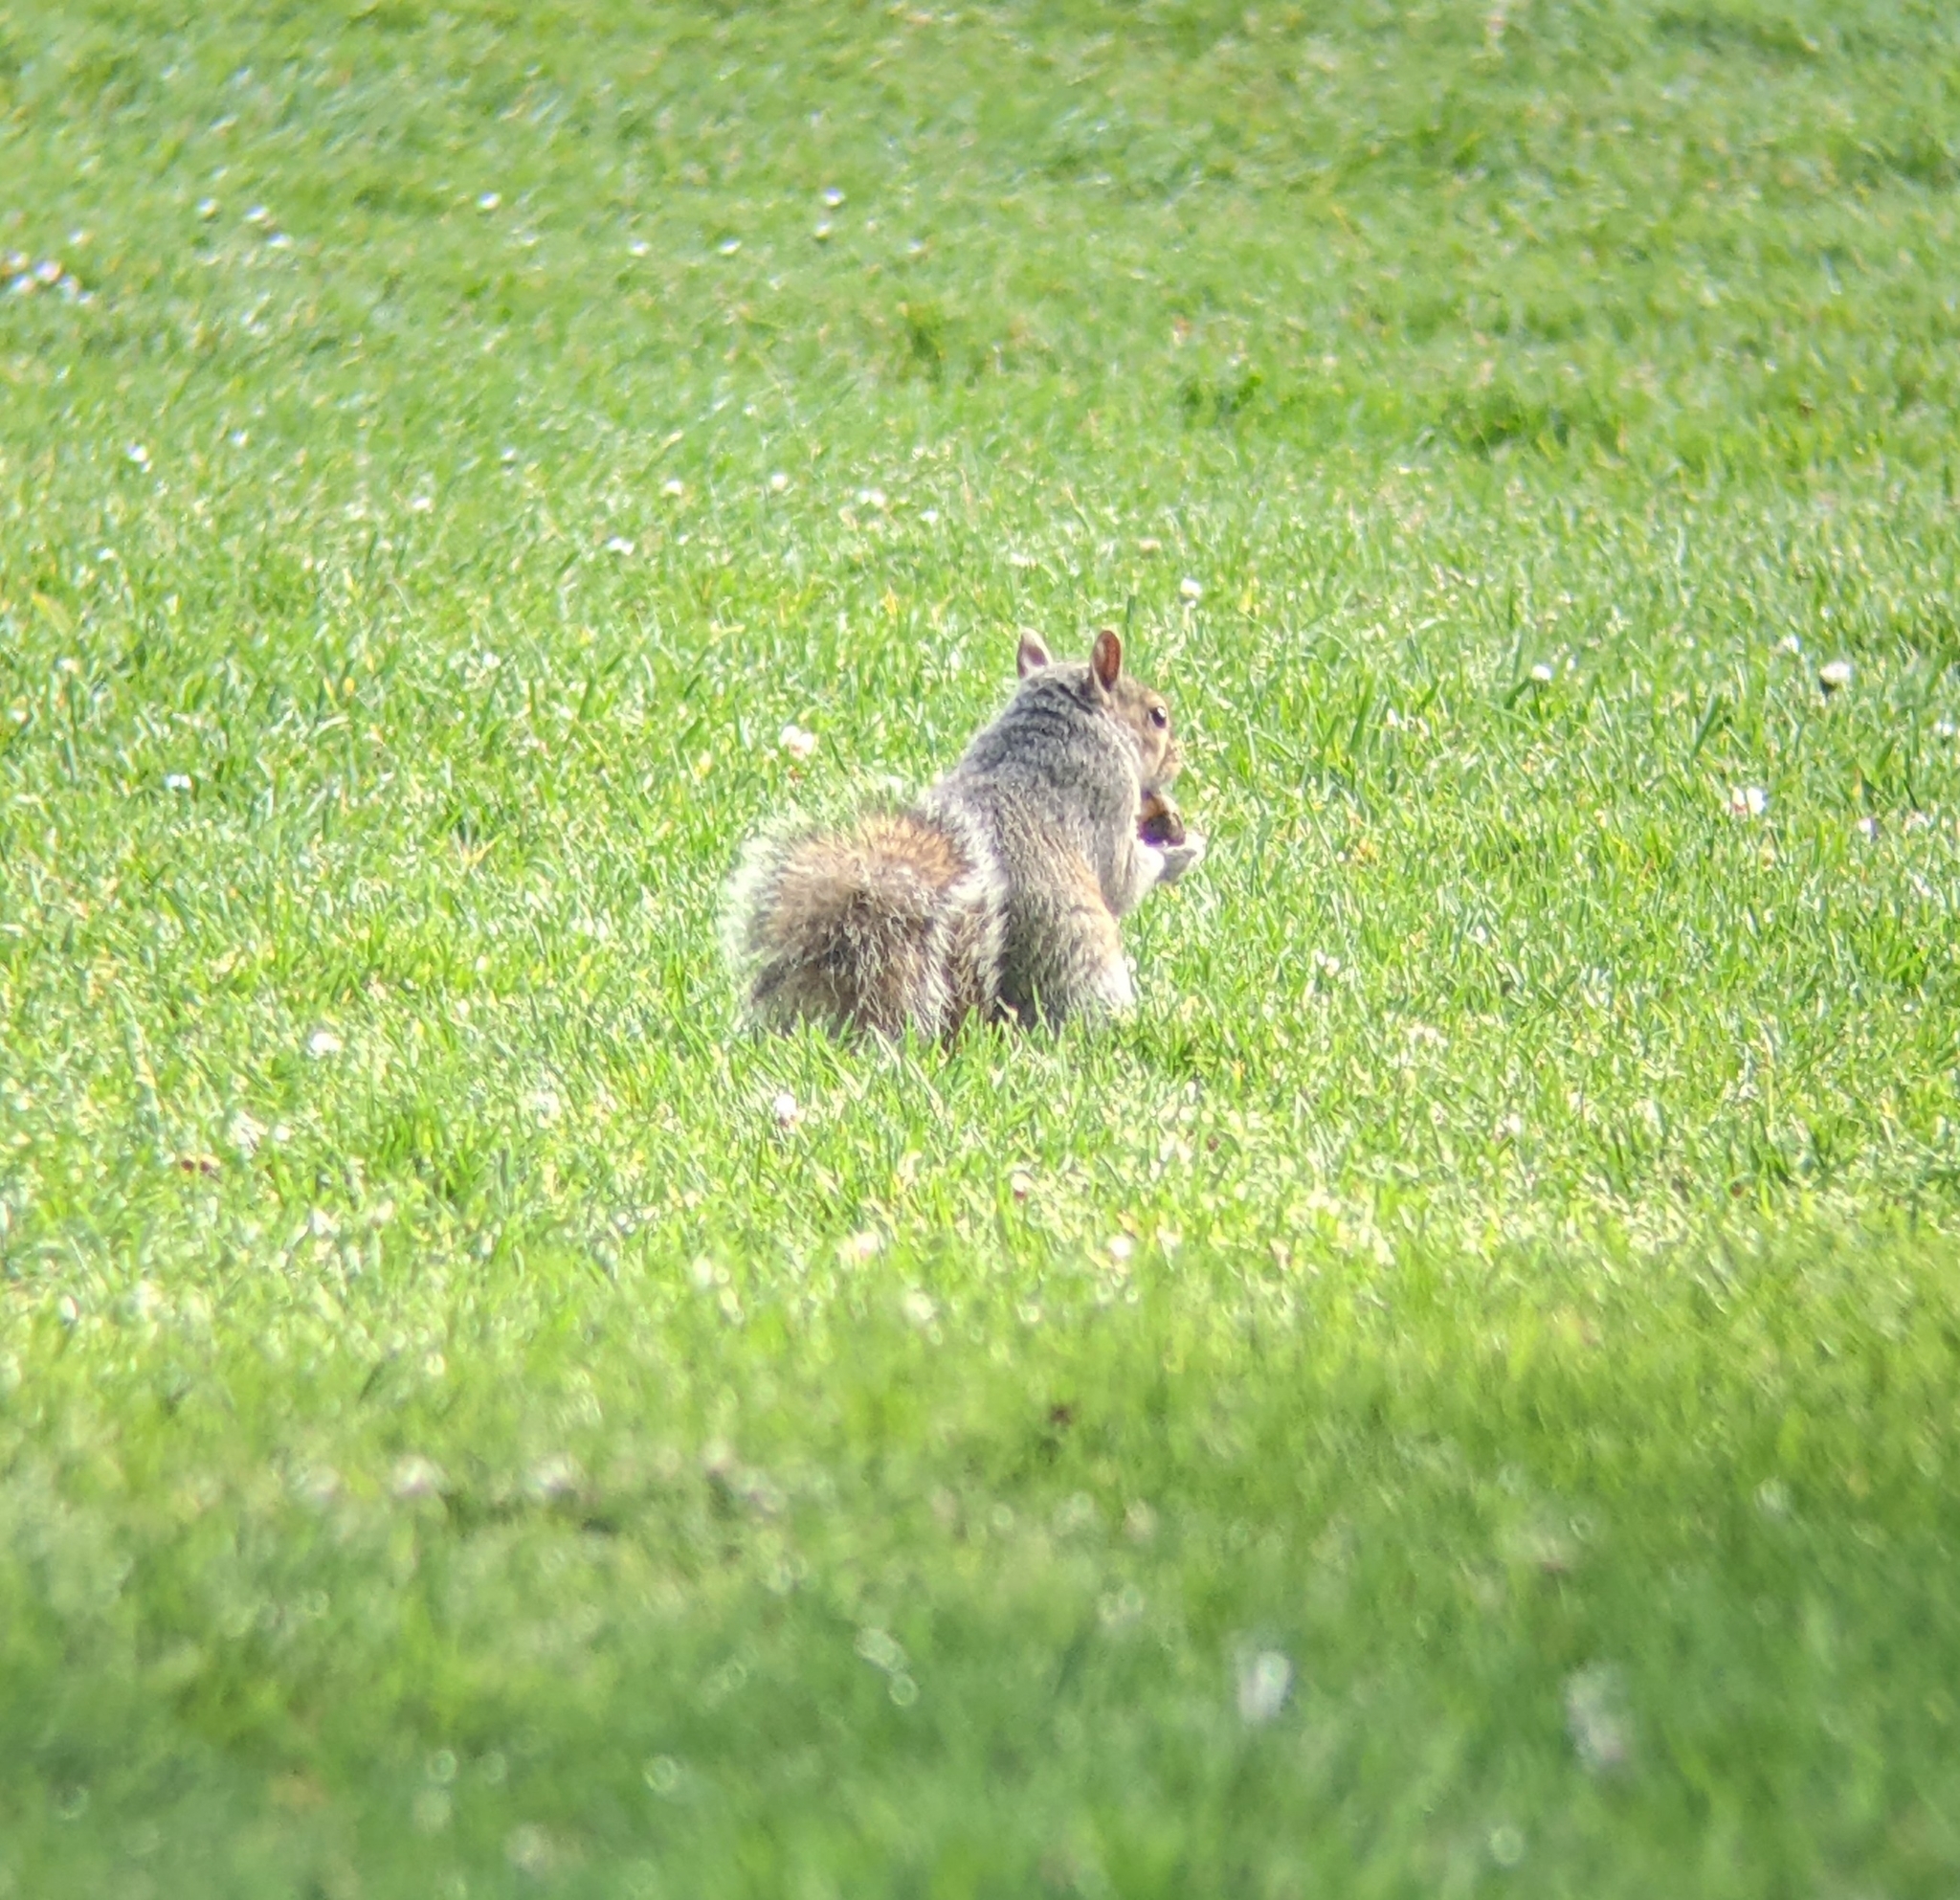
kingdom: Animalia
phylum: Chordata
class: Mammalia
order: Rodentia
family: Sciuridae
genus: Sciurus
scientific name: Sciurus carolinensis
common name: Eastern gray squirrel
